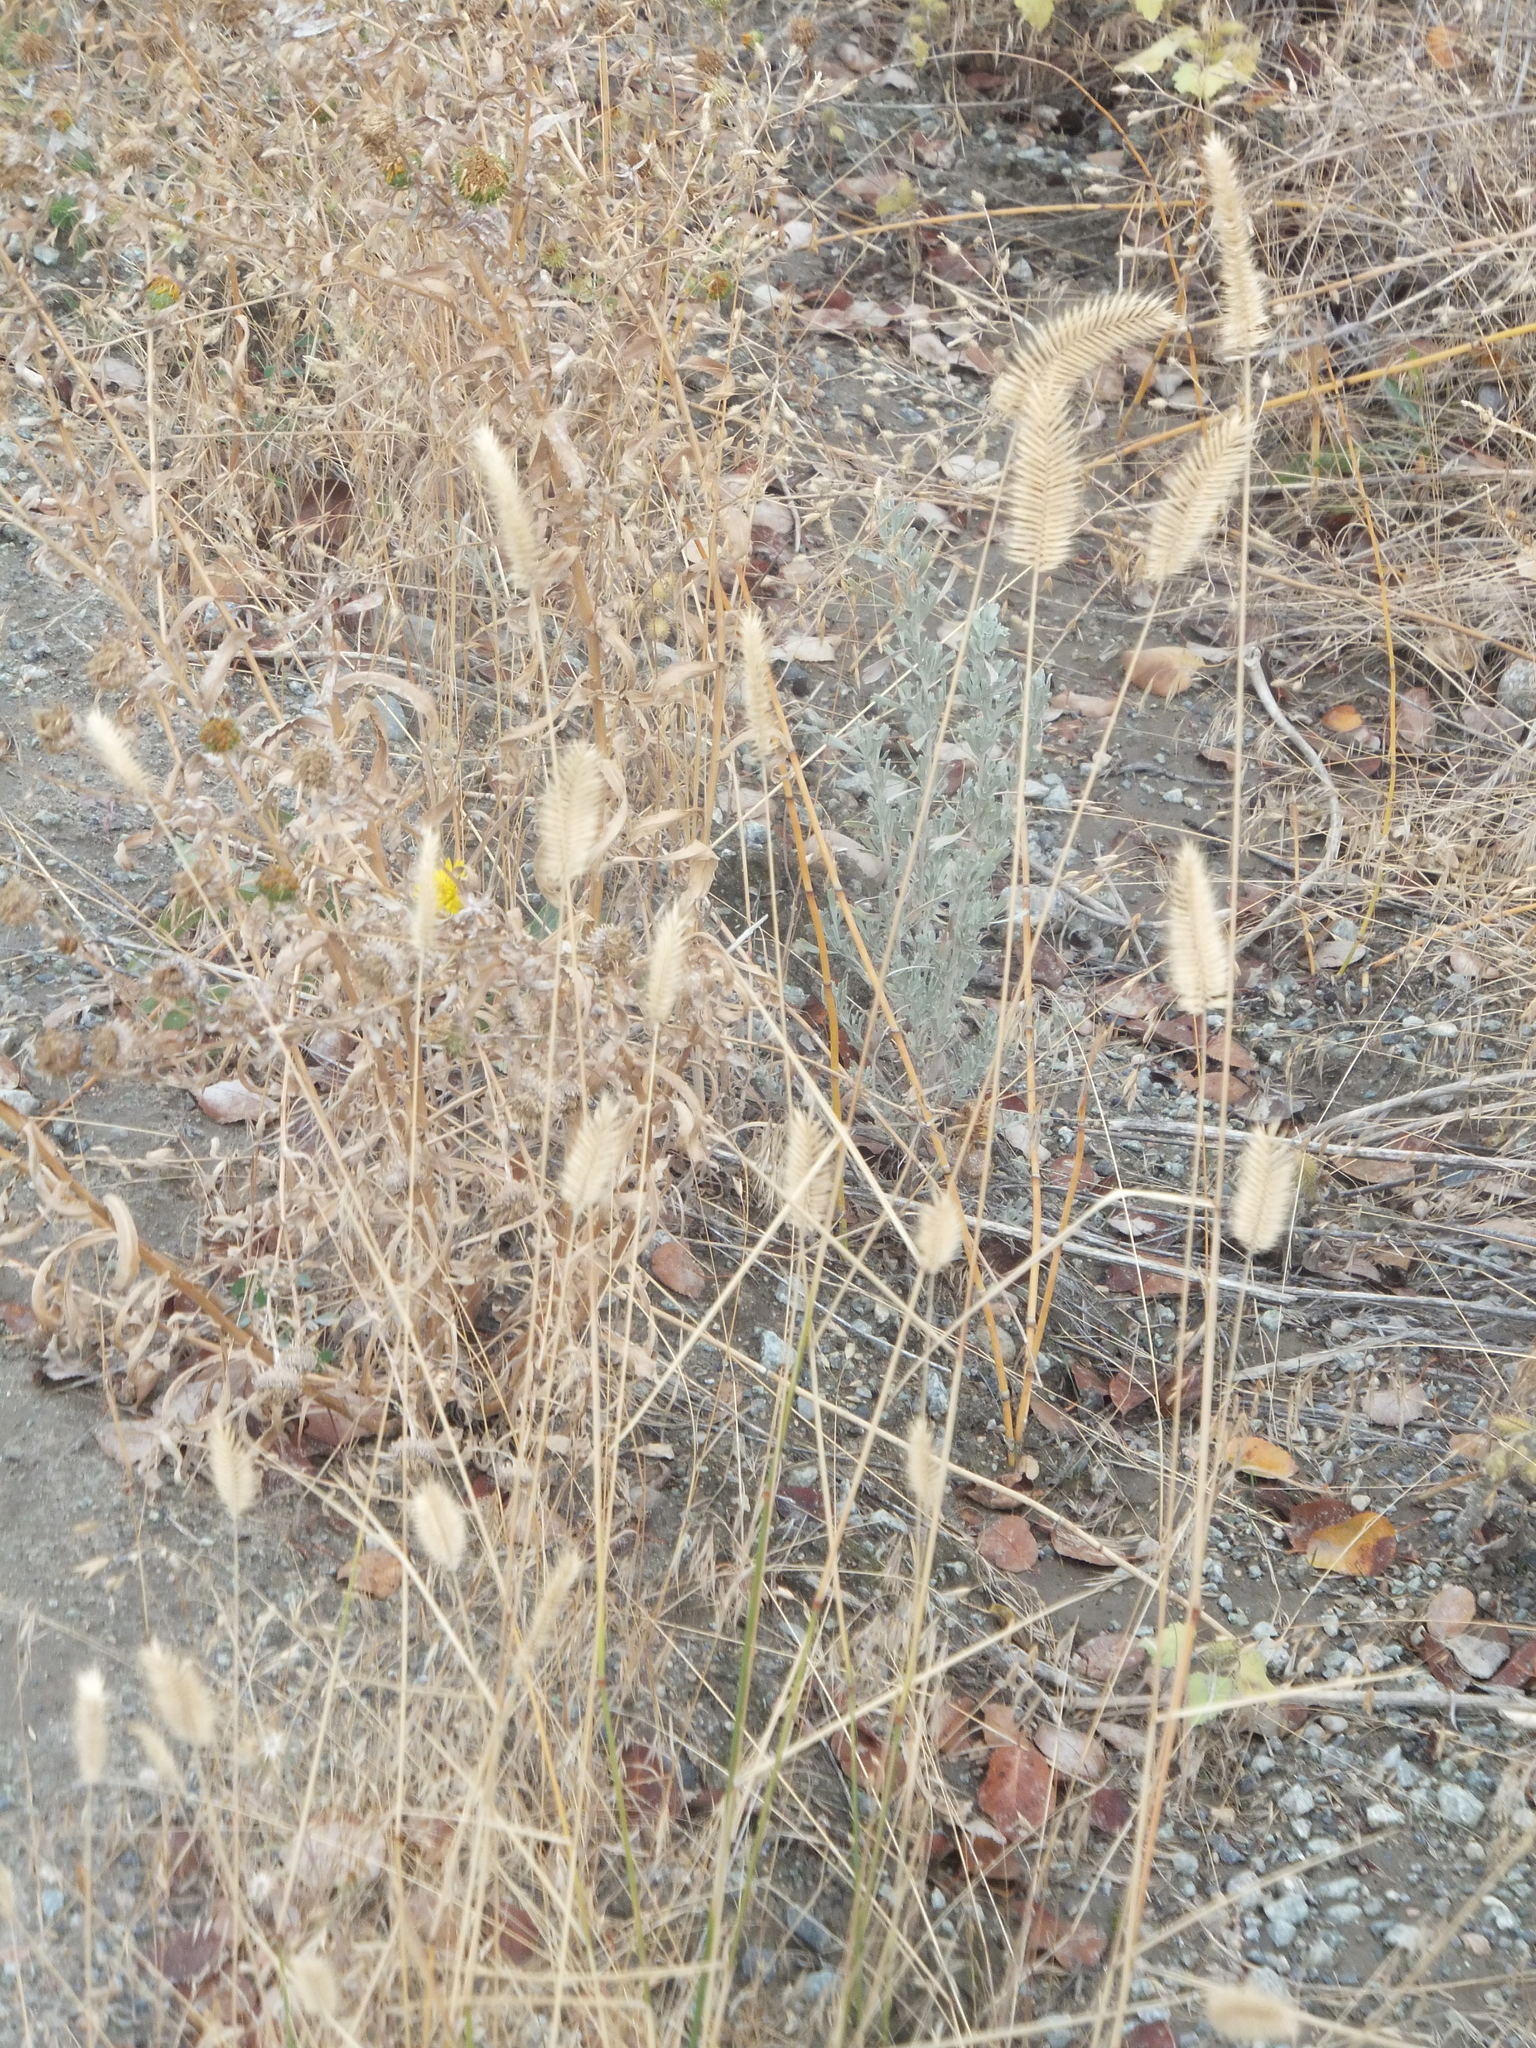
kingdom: Plantae
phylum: Tracheophyta
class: Liliopsida
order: Poales
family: Poaceae
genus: Agropyron
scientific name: Agropyron cristatum
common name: Crested wheatgrass
